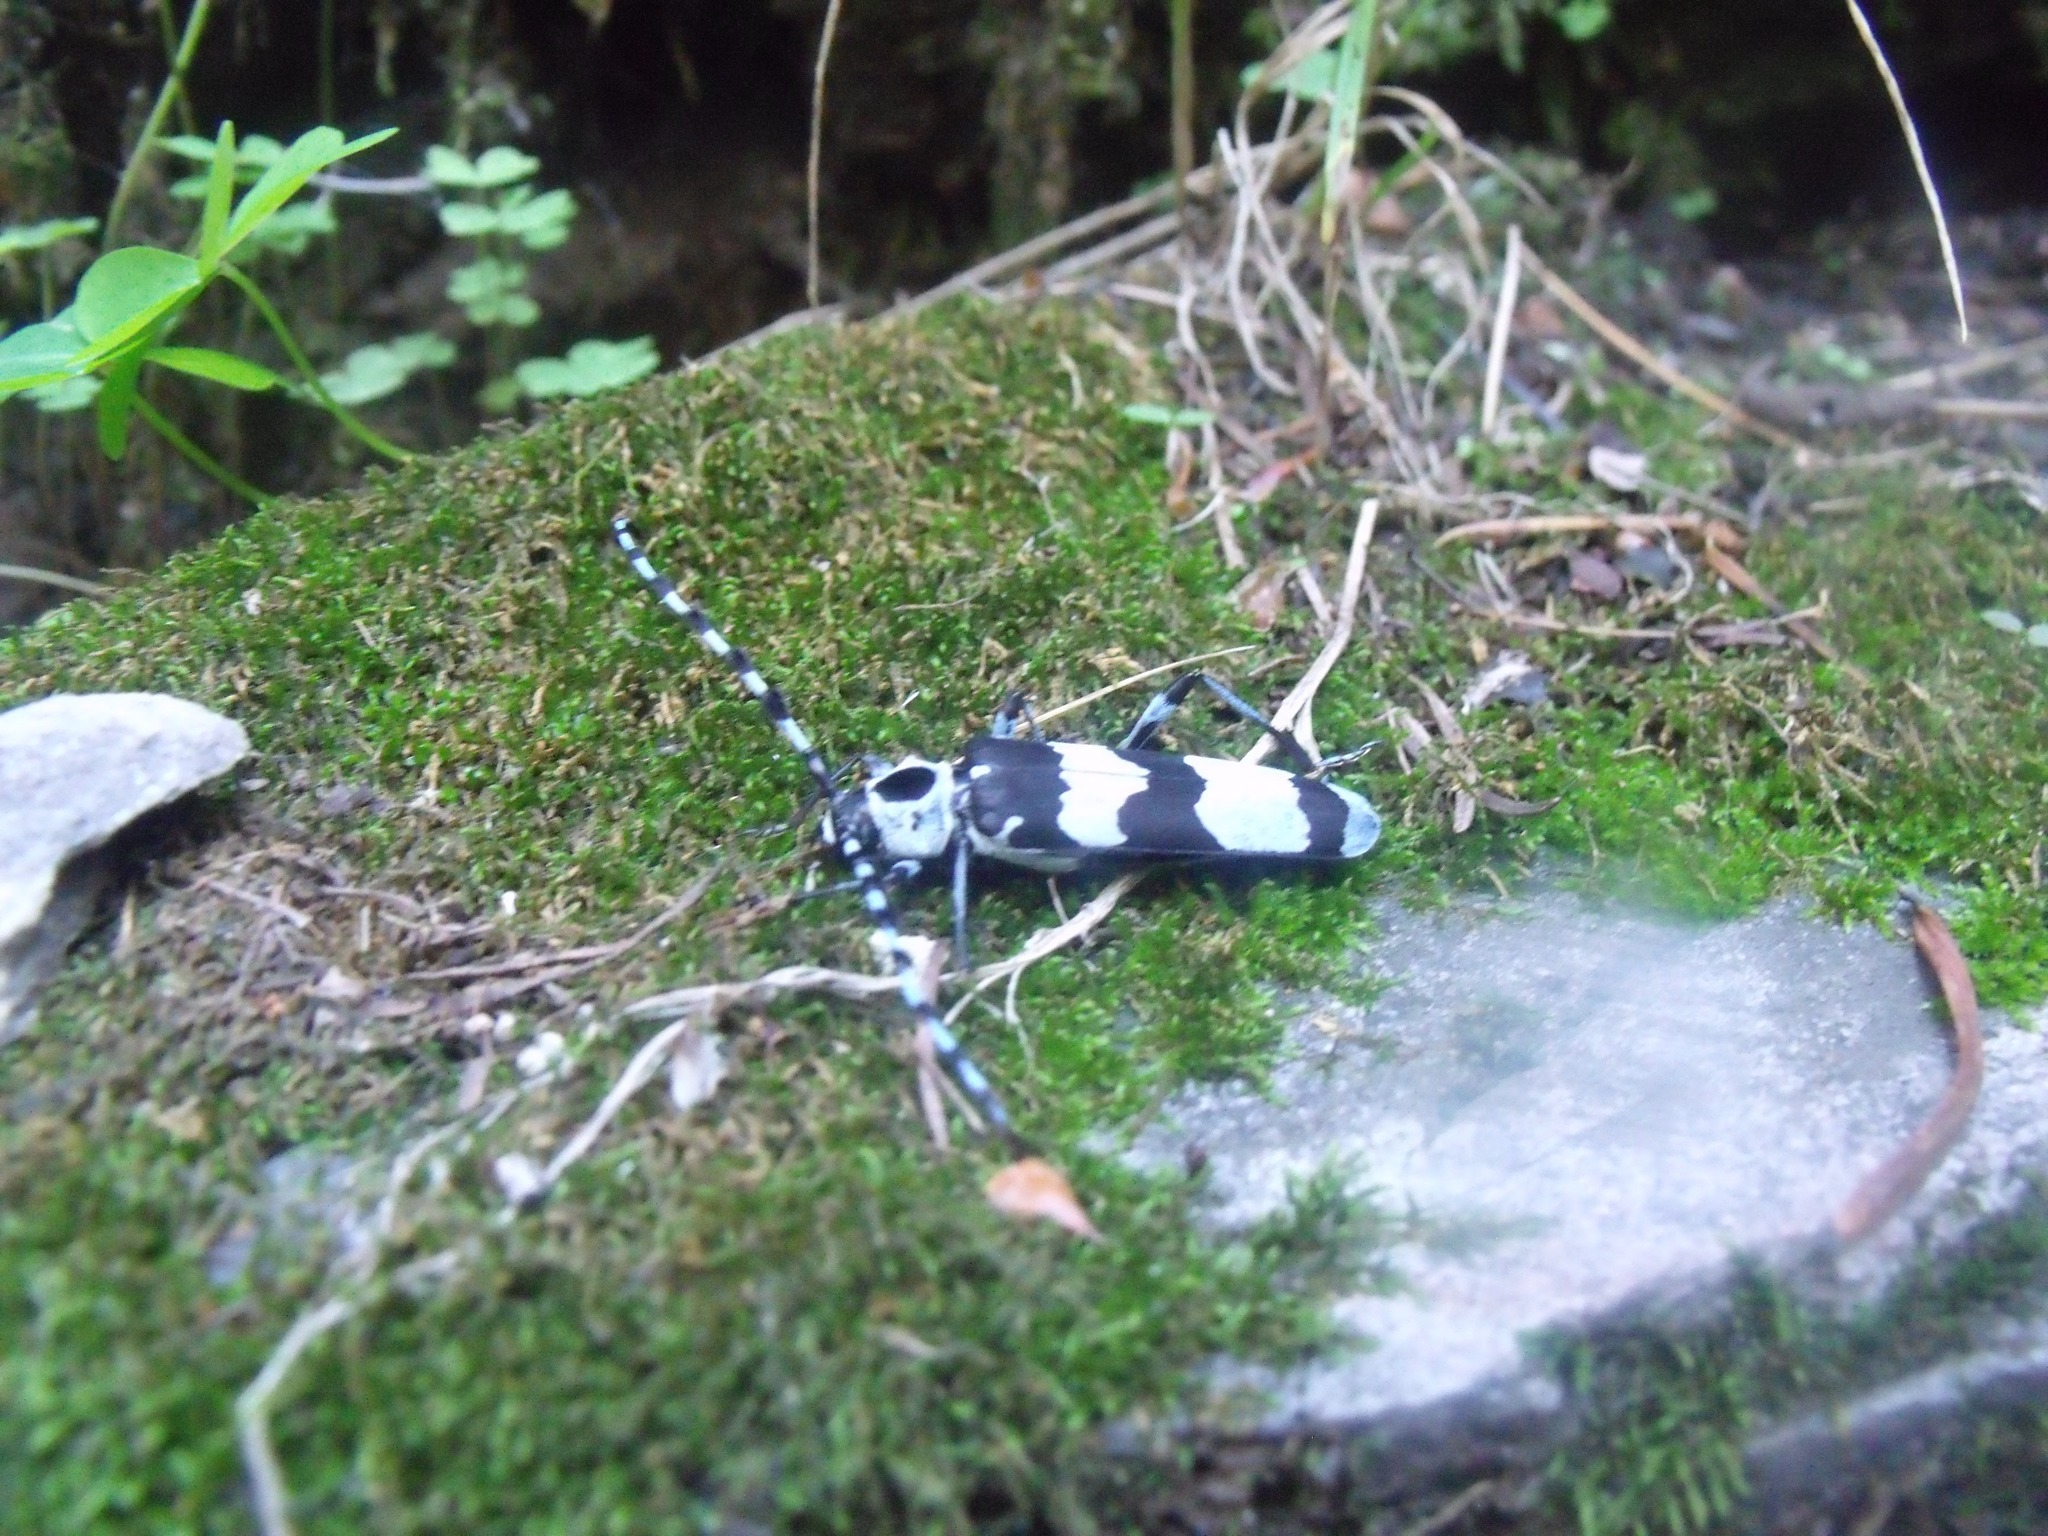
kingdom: Animalia
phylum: Arthropoda
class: Insecta
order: Coleoptera
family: Cerambycidae
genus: Rosalia
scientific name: Rosalia funebris
